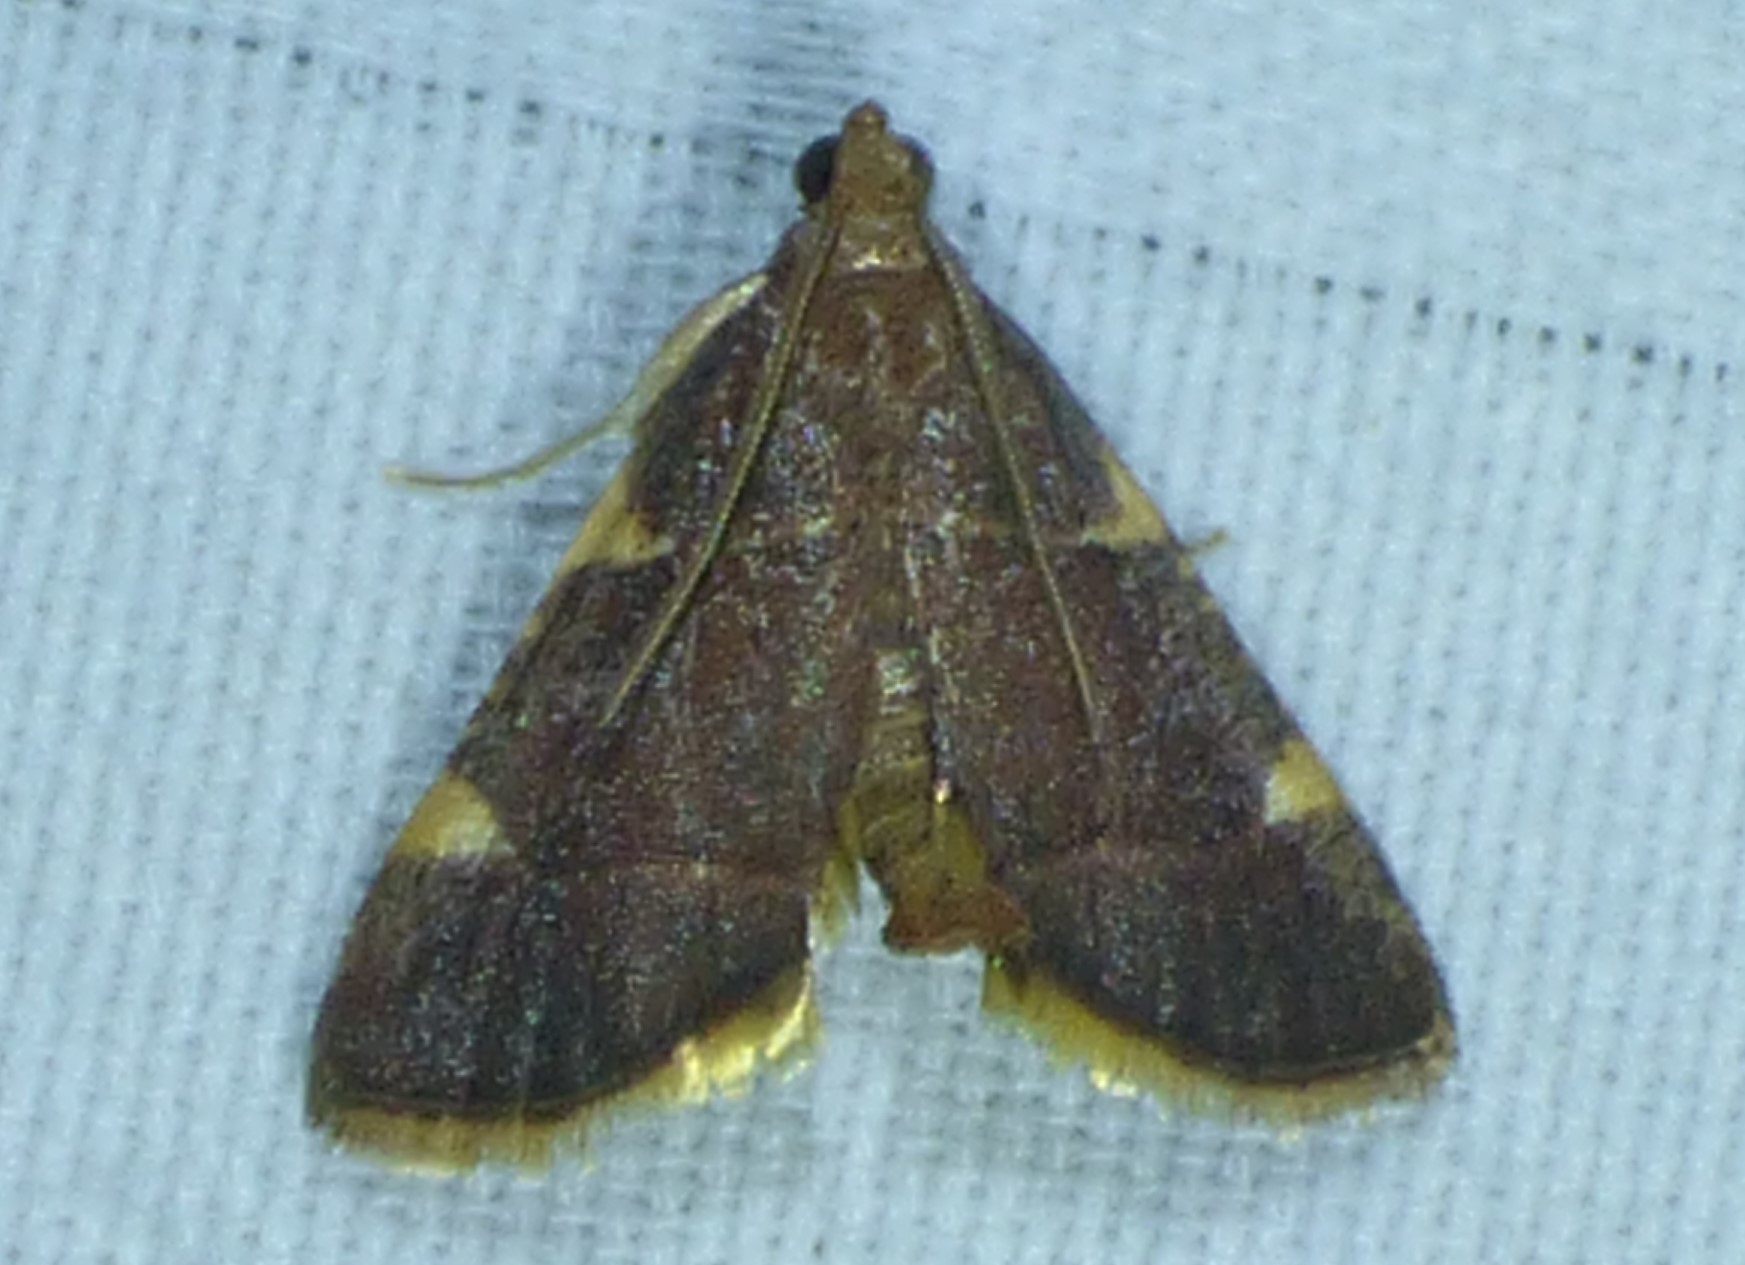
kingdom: Animalia
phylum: Arthropoda
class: Insecta
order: Lepidoptera
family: Pyralidae
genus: Hypsopygia
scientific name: Hypsopygia olinalis
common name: Yellow-fringed dolichomia moth
